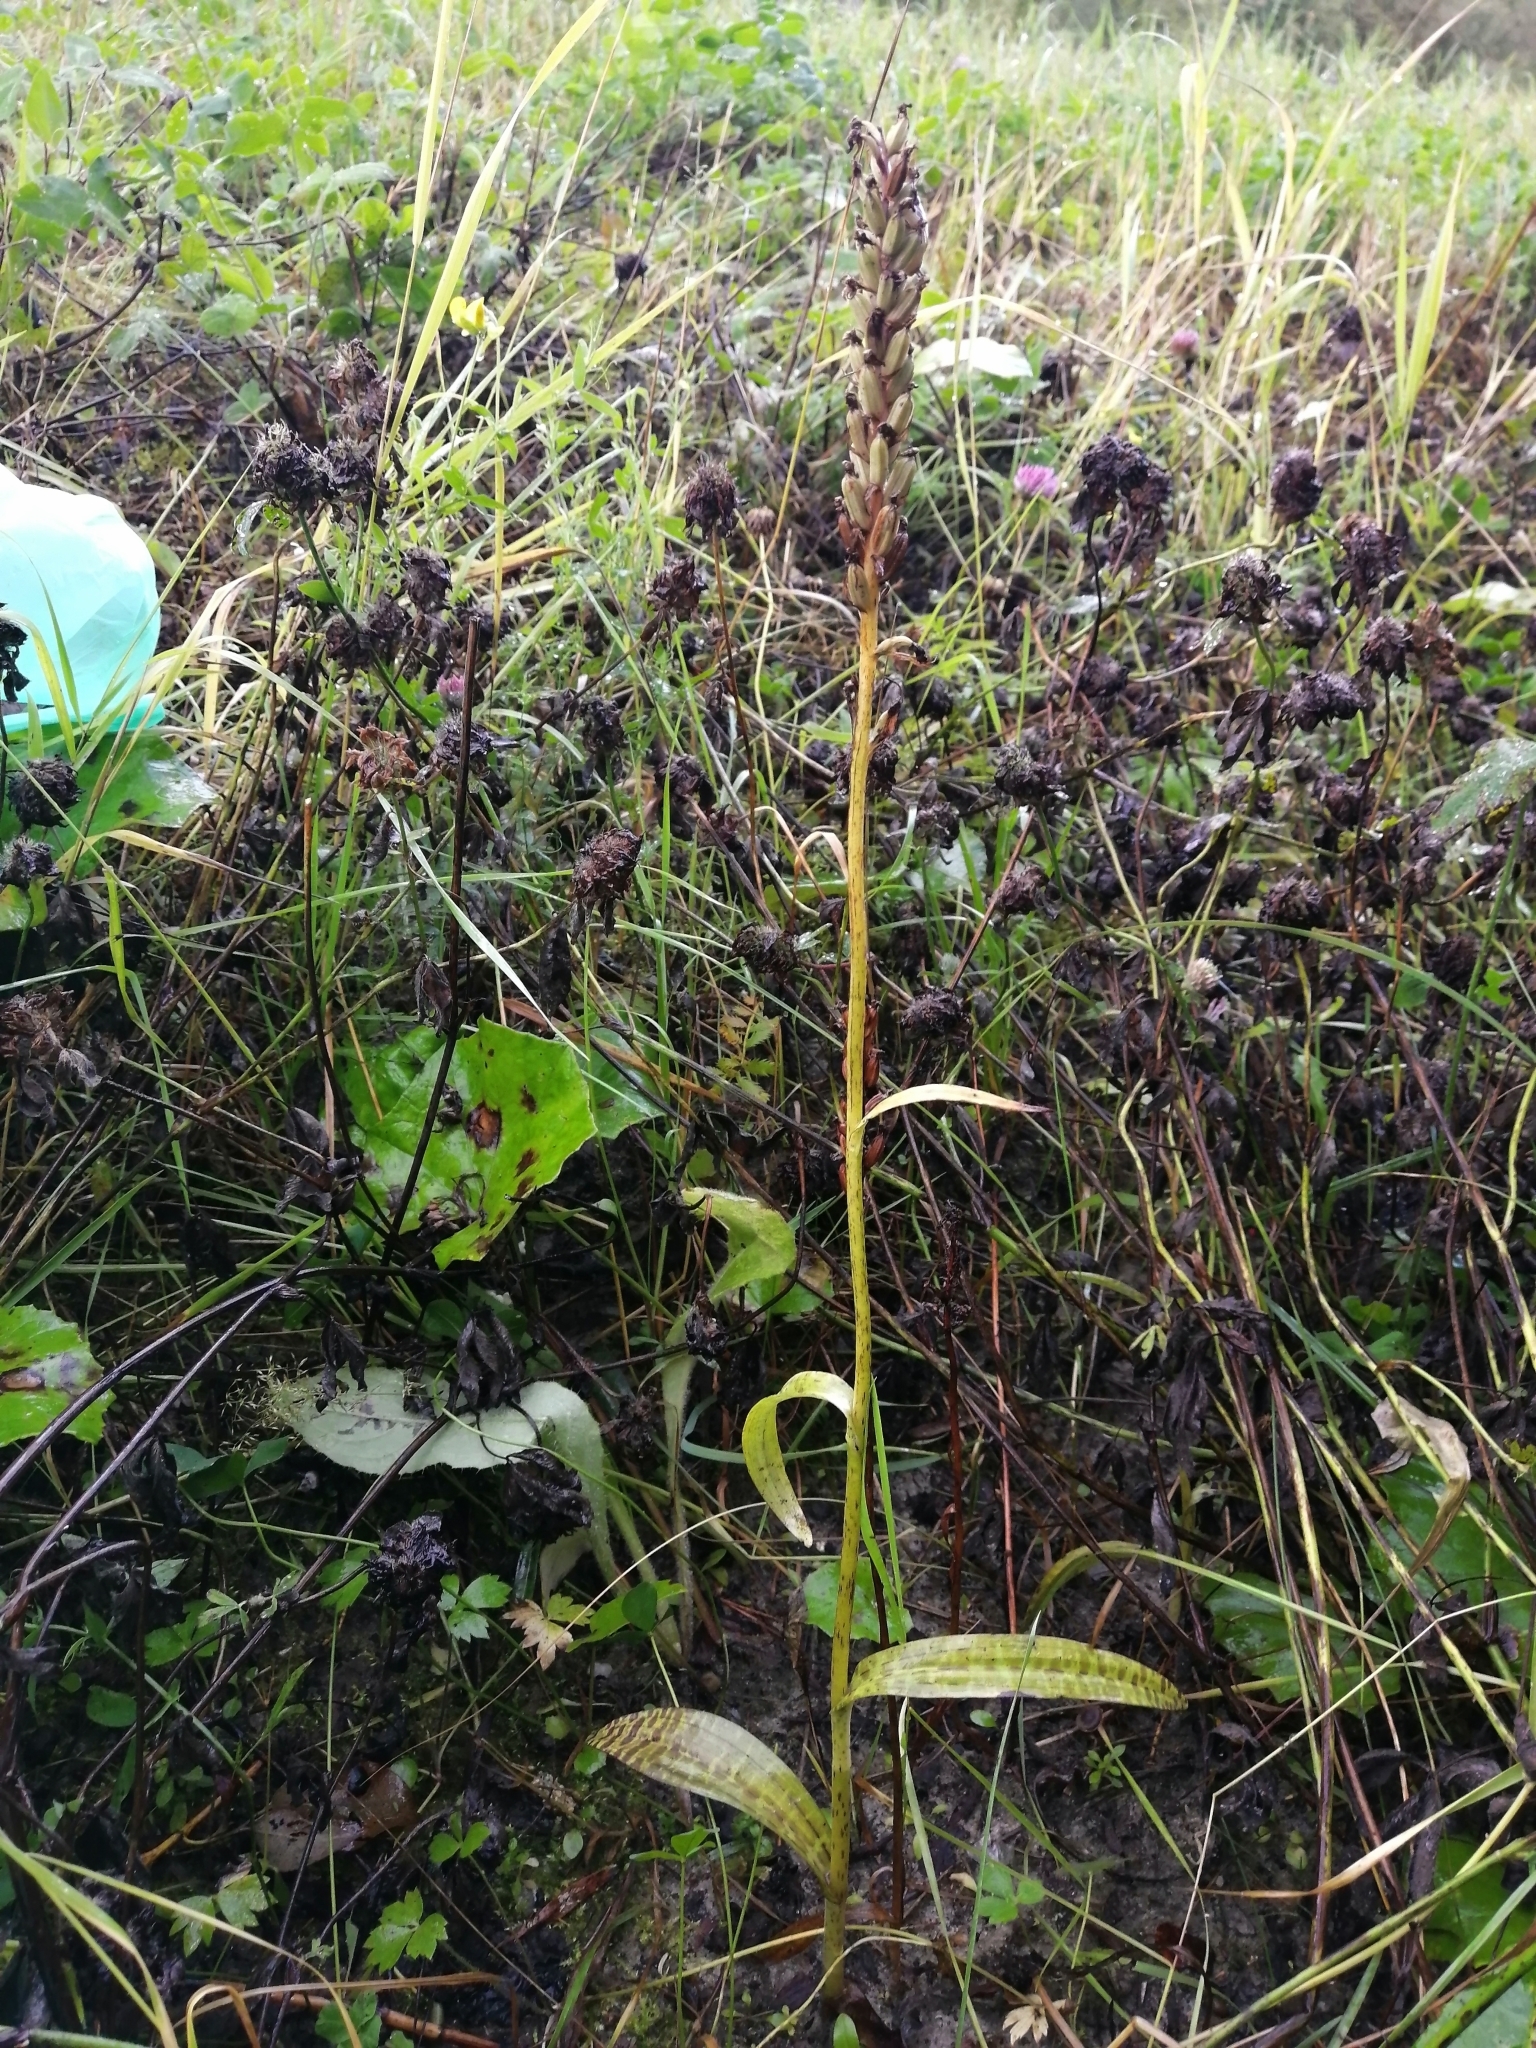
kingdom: Plantae
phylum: Tracheophyta
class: Liliopsida
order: Asparagales
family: Orchidaceae
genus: Dactylorhiza
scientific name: Dactylorhiza maculata
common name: Heath spotted-orchid
